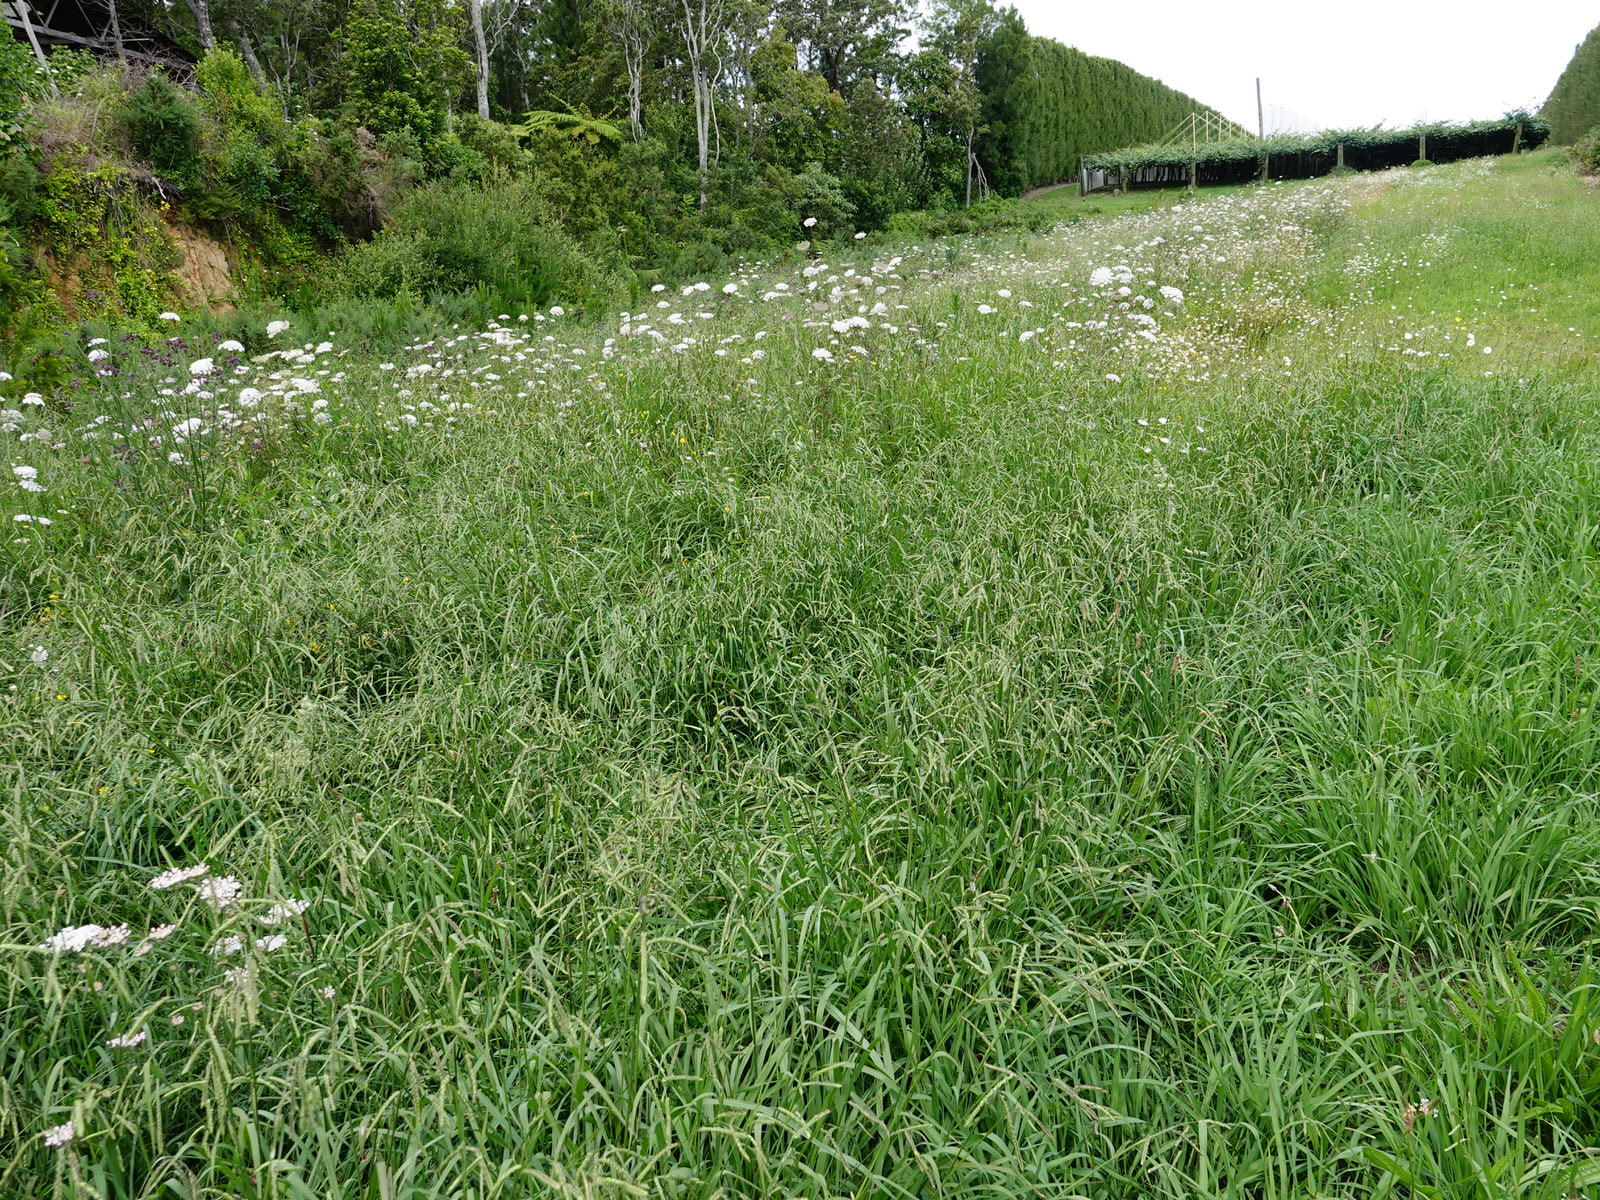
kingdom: Plantae
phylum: Tracheophyta
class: Liliopsida
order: Poales
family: Poaceae
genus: Paspalum
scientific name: Paspalum dilatatum
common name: Dallisgrass
